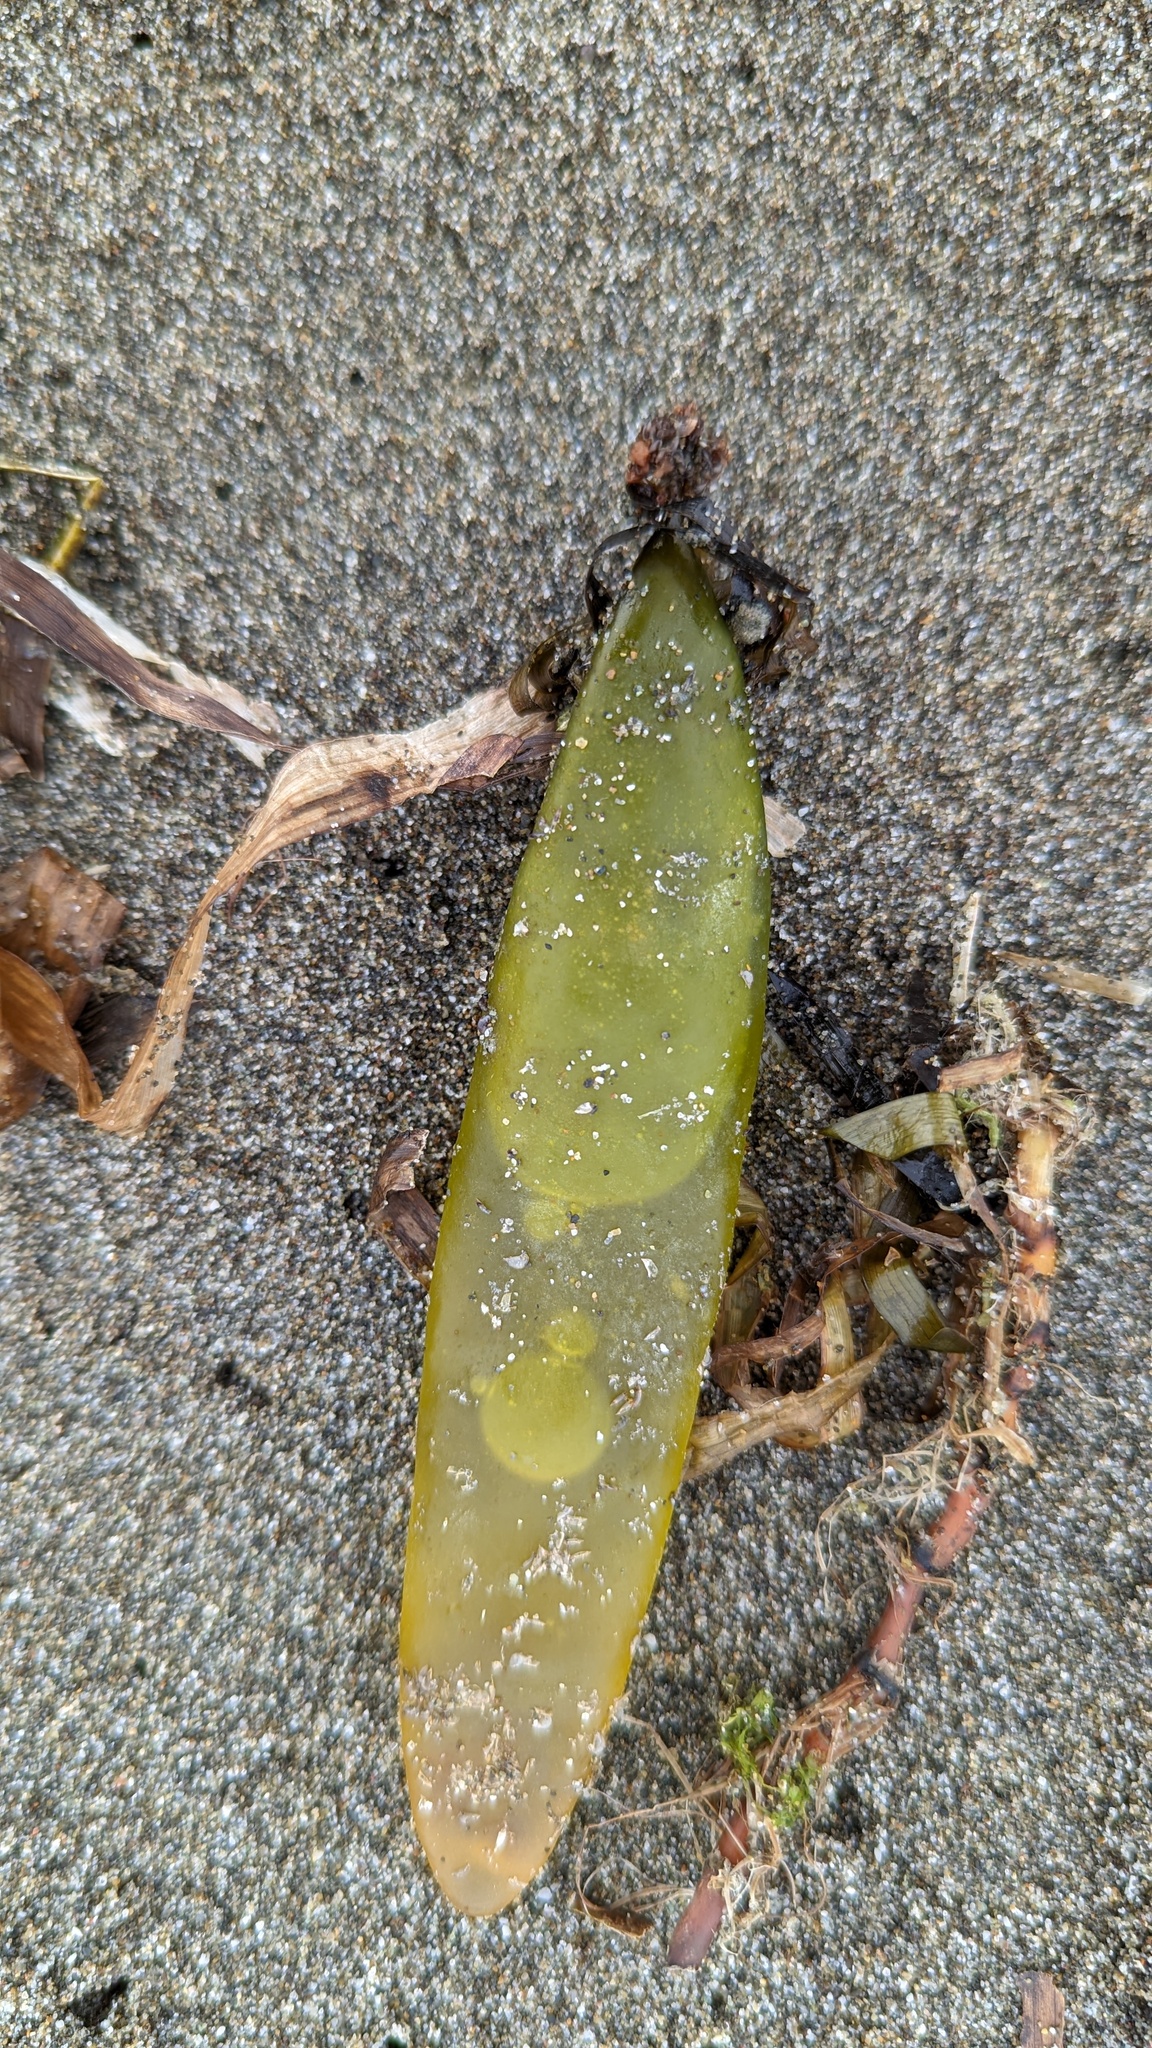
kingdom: Plantae
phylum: Rhodophyta
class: Florideophyceae
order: Palmariales
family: Palmariaceae
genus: Halosaccion
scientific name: Halosaccion glandiforme
